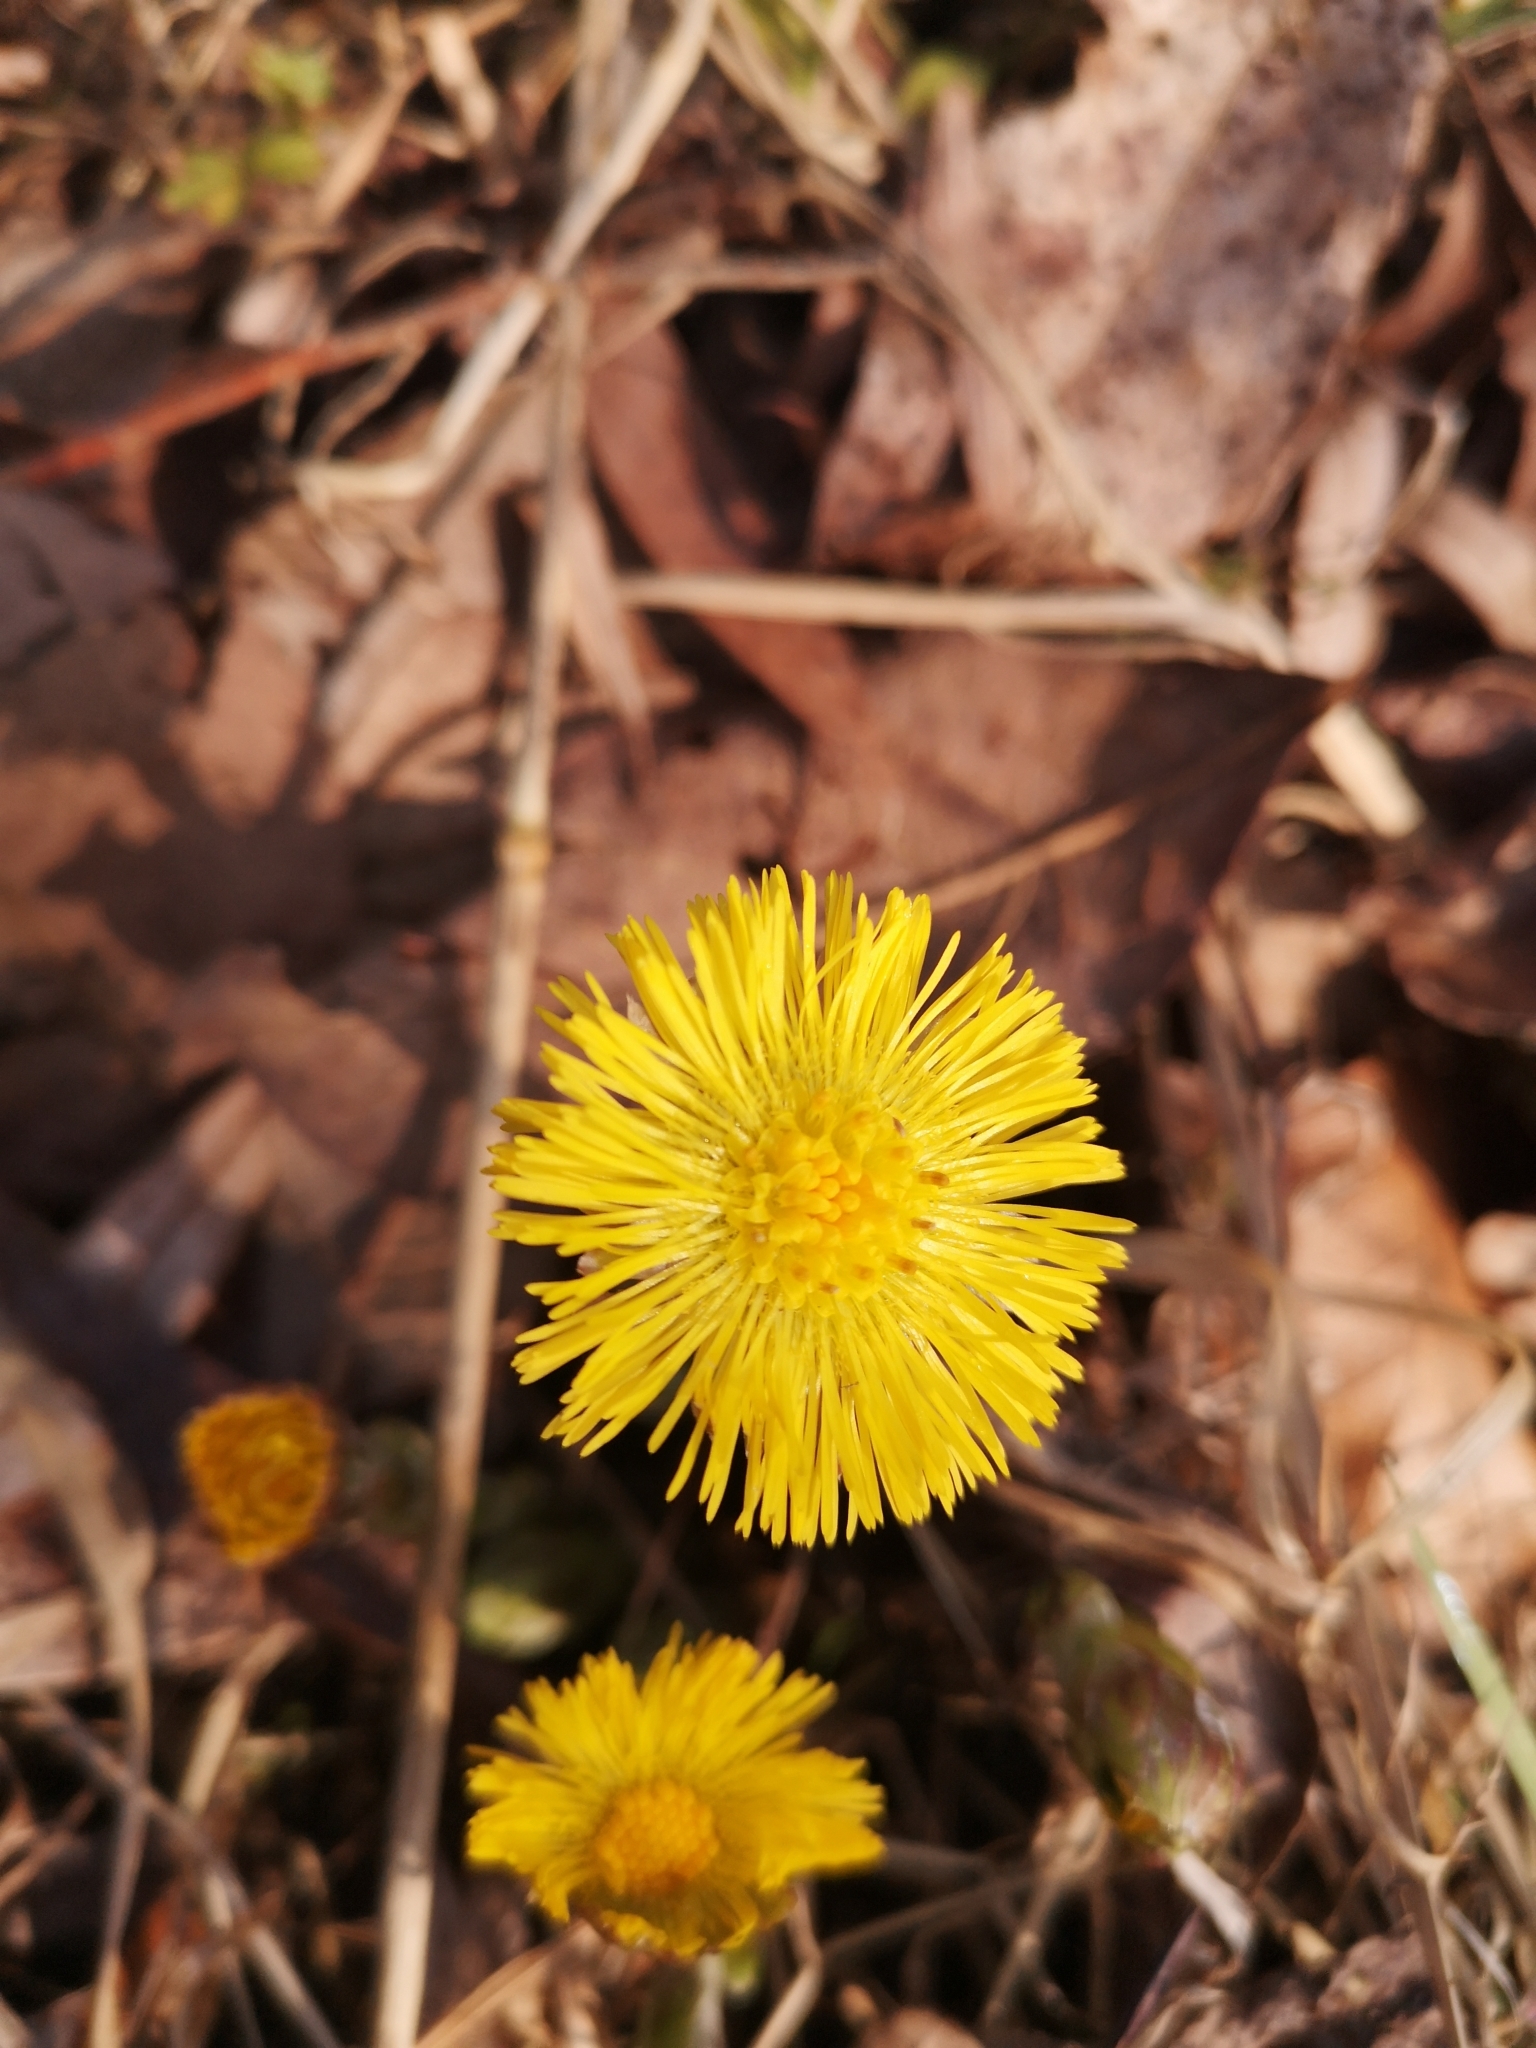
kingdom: Plantae
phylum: Tracheophyta
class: Magnoliopsida
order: Asterales
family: Asteraceae
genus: Tussilago
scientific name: Tussilago farfara
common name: Coltsfoot
